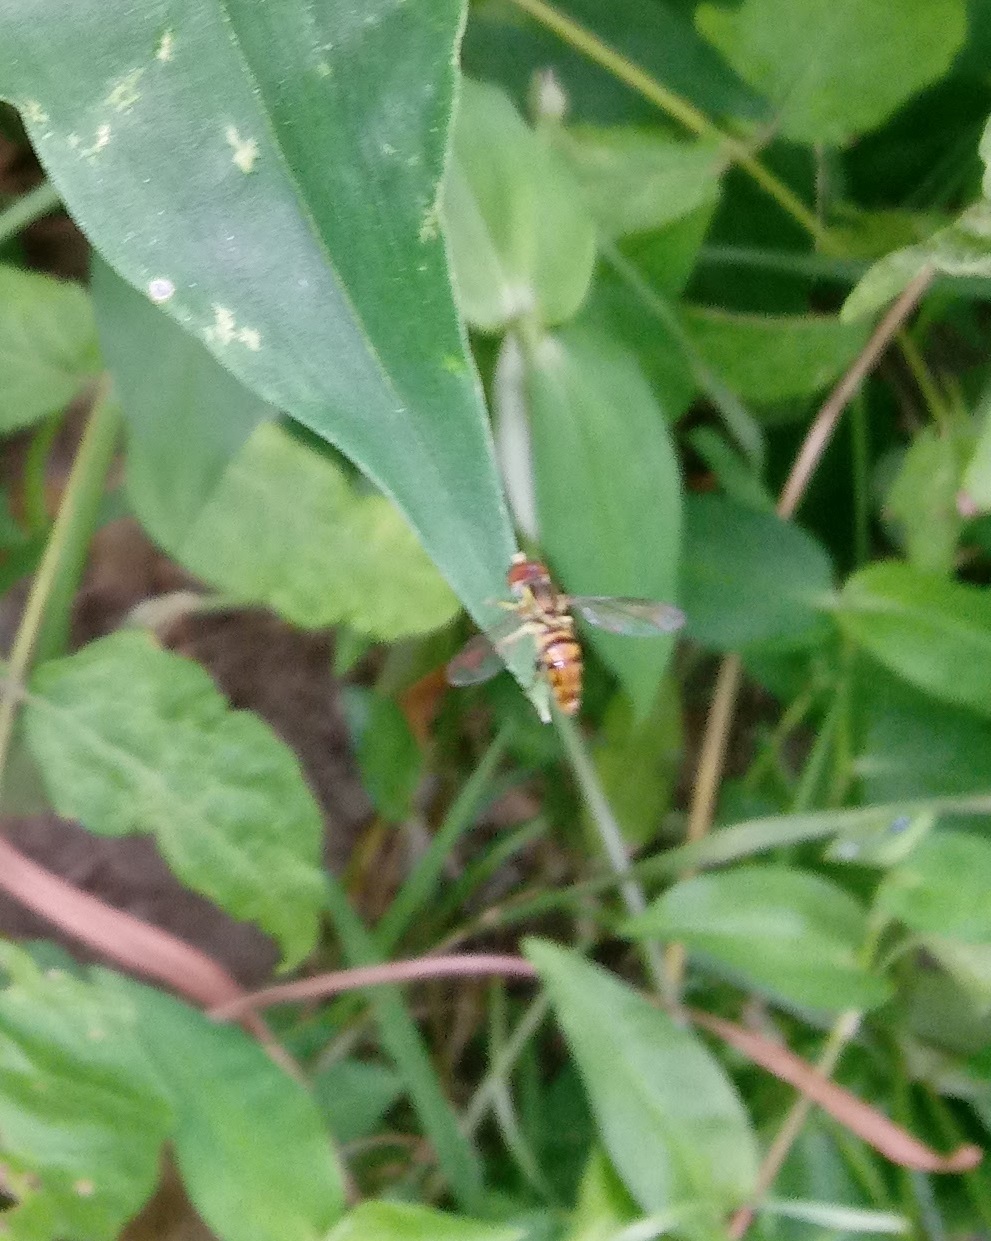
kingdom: Animalia
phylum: Arthropoda
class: Insecta
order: Diptera
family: Syrphidae
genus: Toxomerus
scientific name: Toxomerus geminatus
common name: Eastern calligrapher
